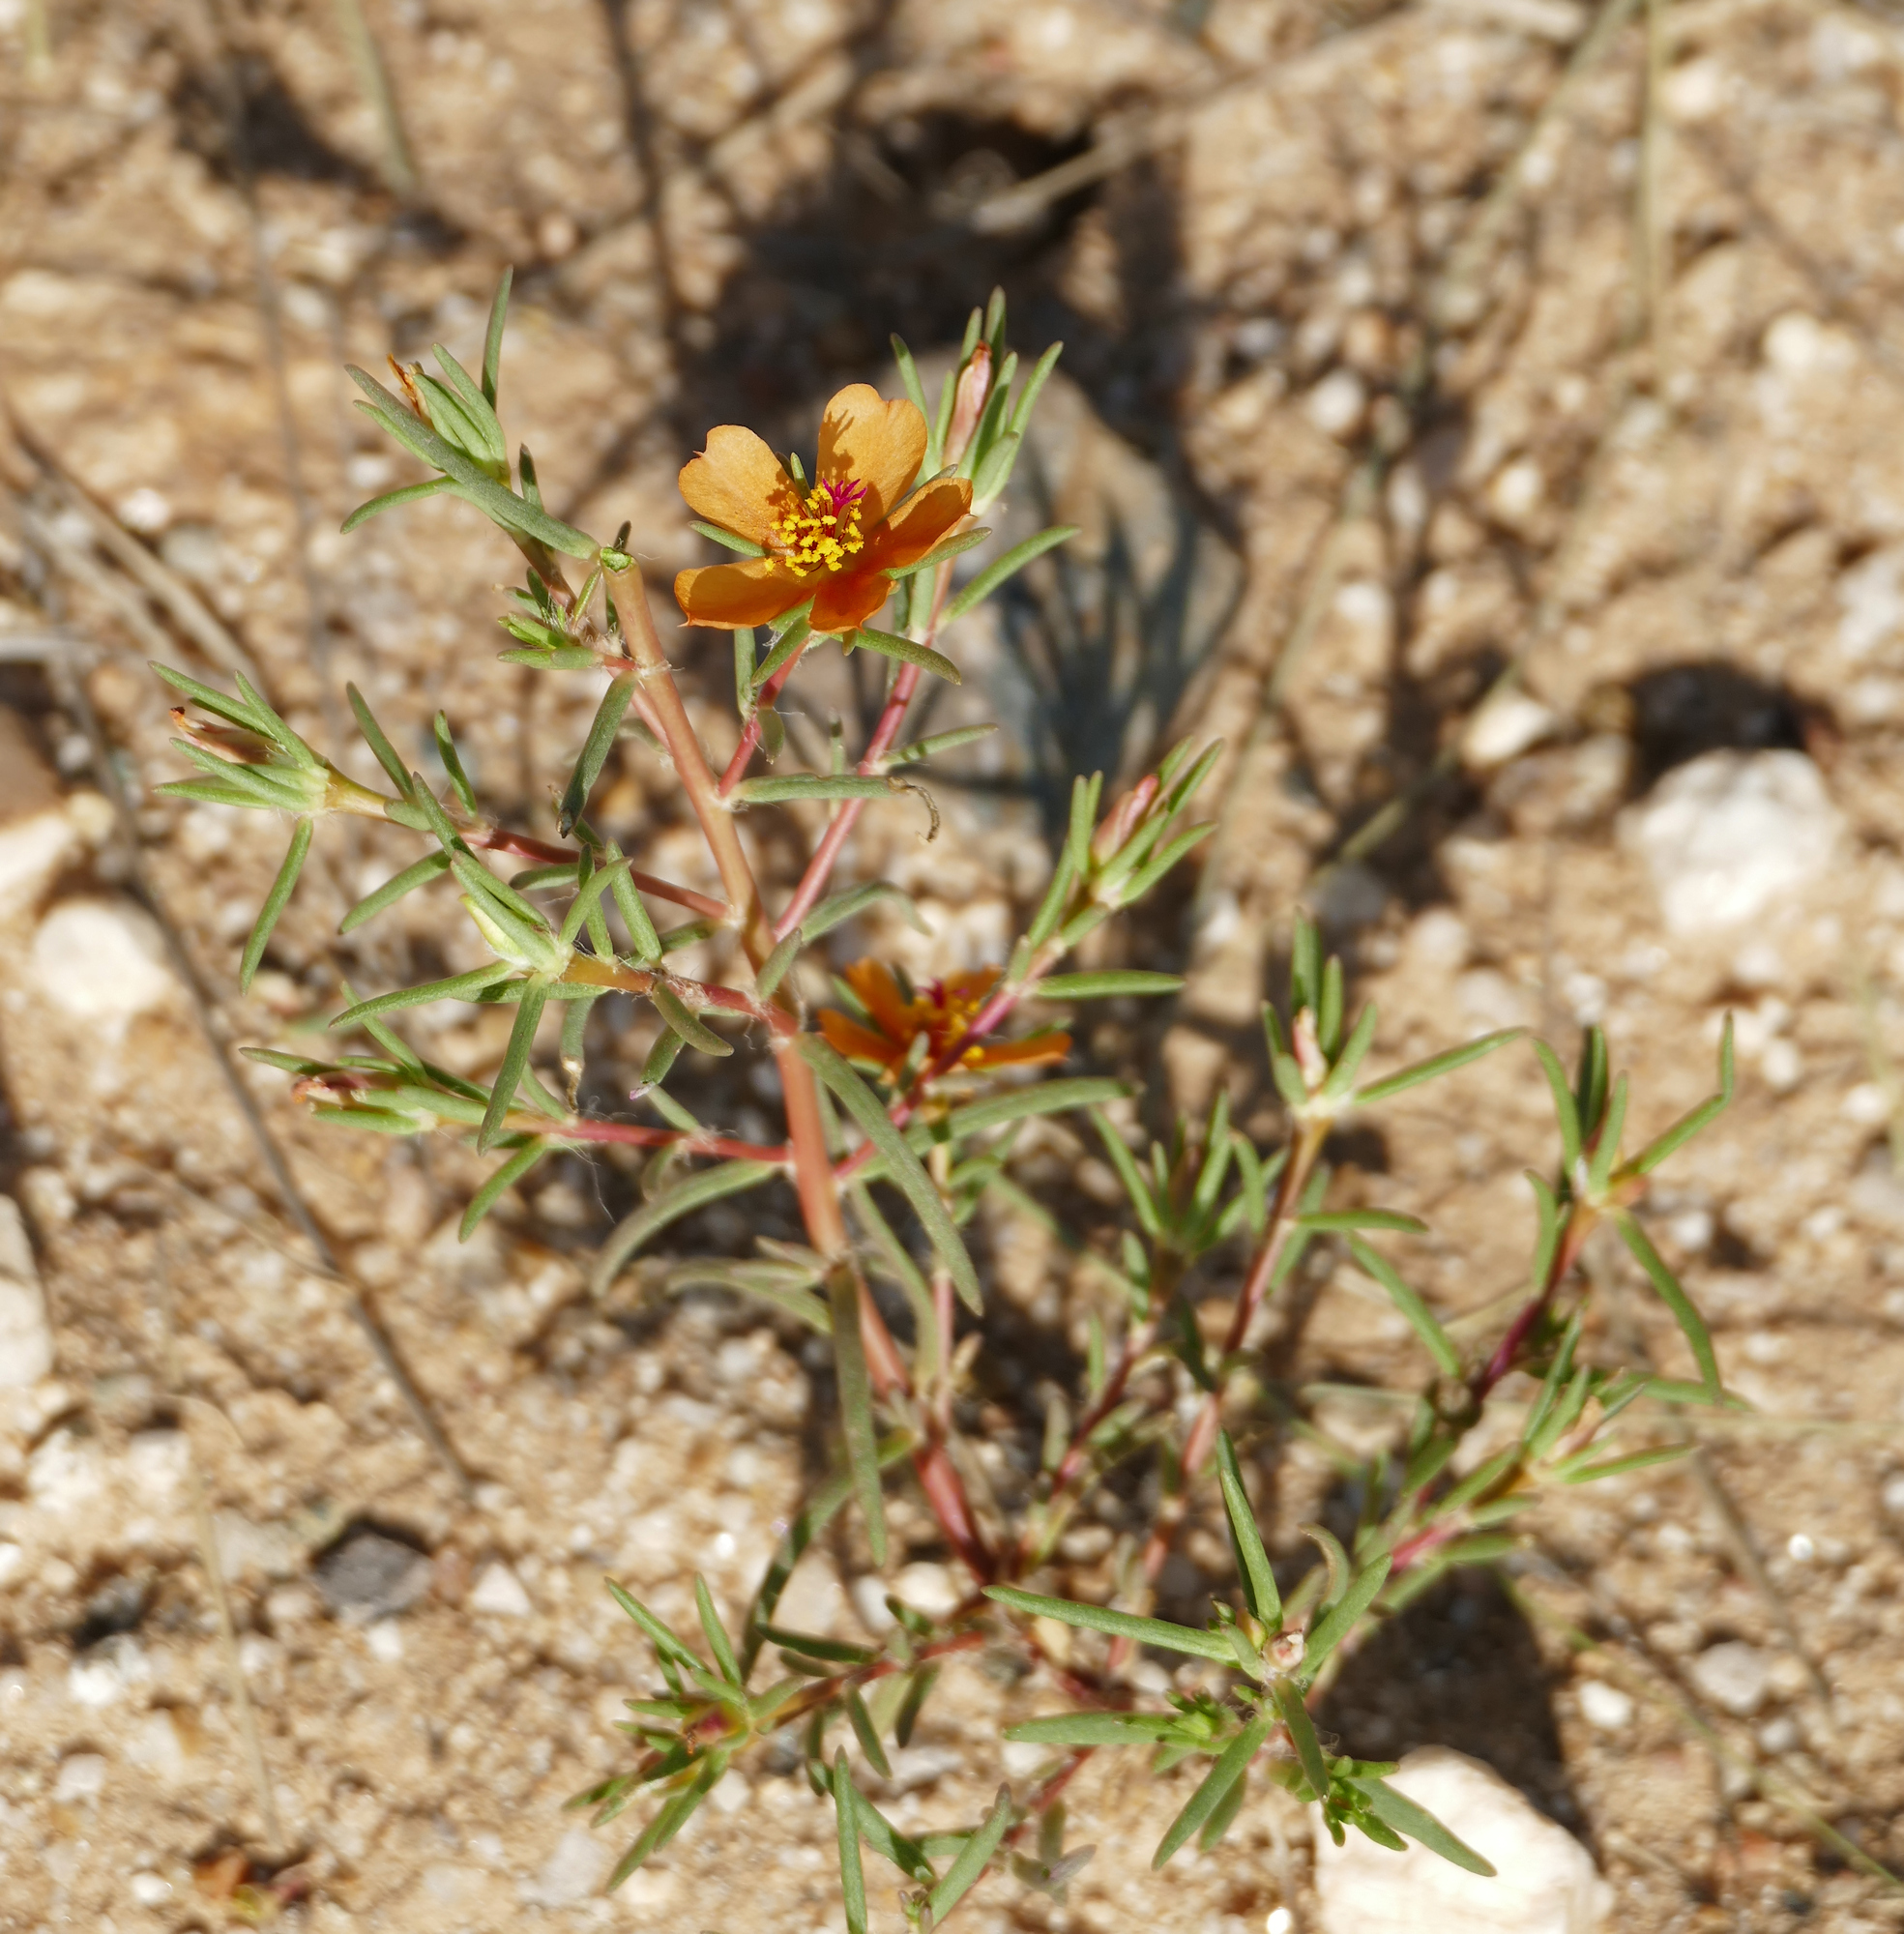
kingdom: Plantae
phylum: Tracheophyta
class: Magnoliopsida
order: Caryophyllales
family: Portulacaceae
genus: Portulaca
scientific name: Portulaca suffrutescens
